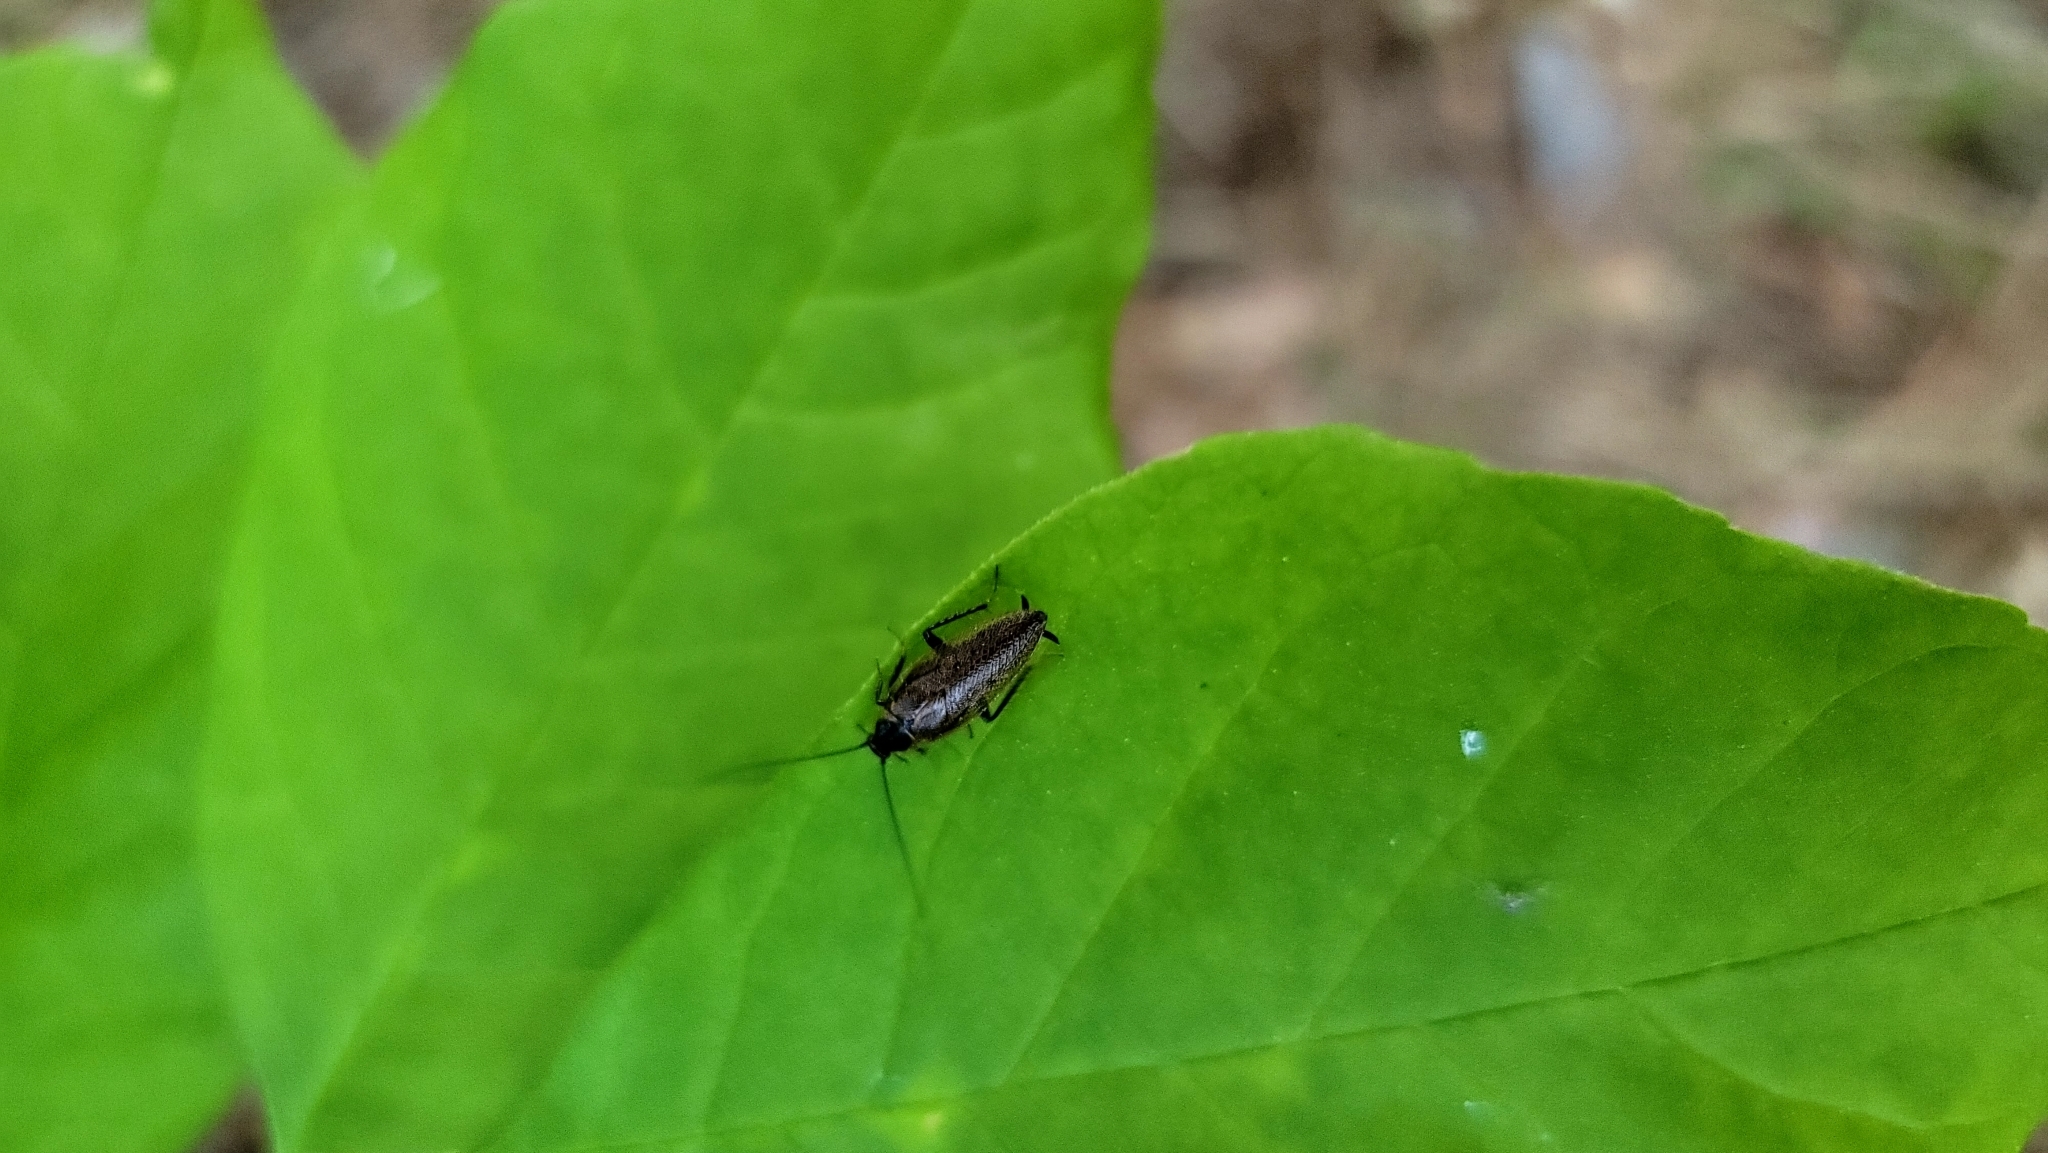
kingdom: Animalia
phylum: Arthropoda
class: Insecta
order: Blattodea
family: Ectobiidae
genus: Ectobius
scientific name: Ectobius lapponicus
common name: Dusky cockroach
